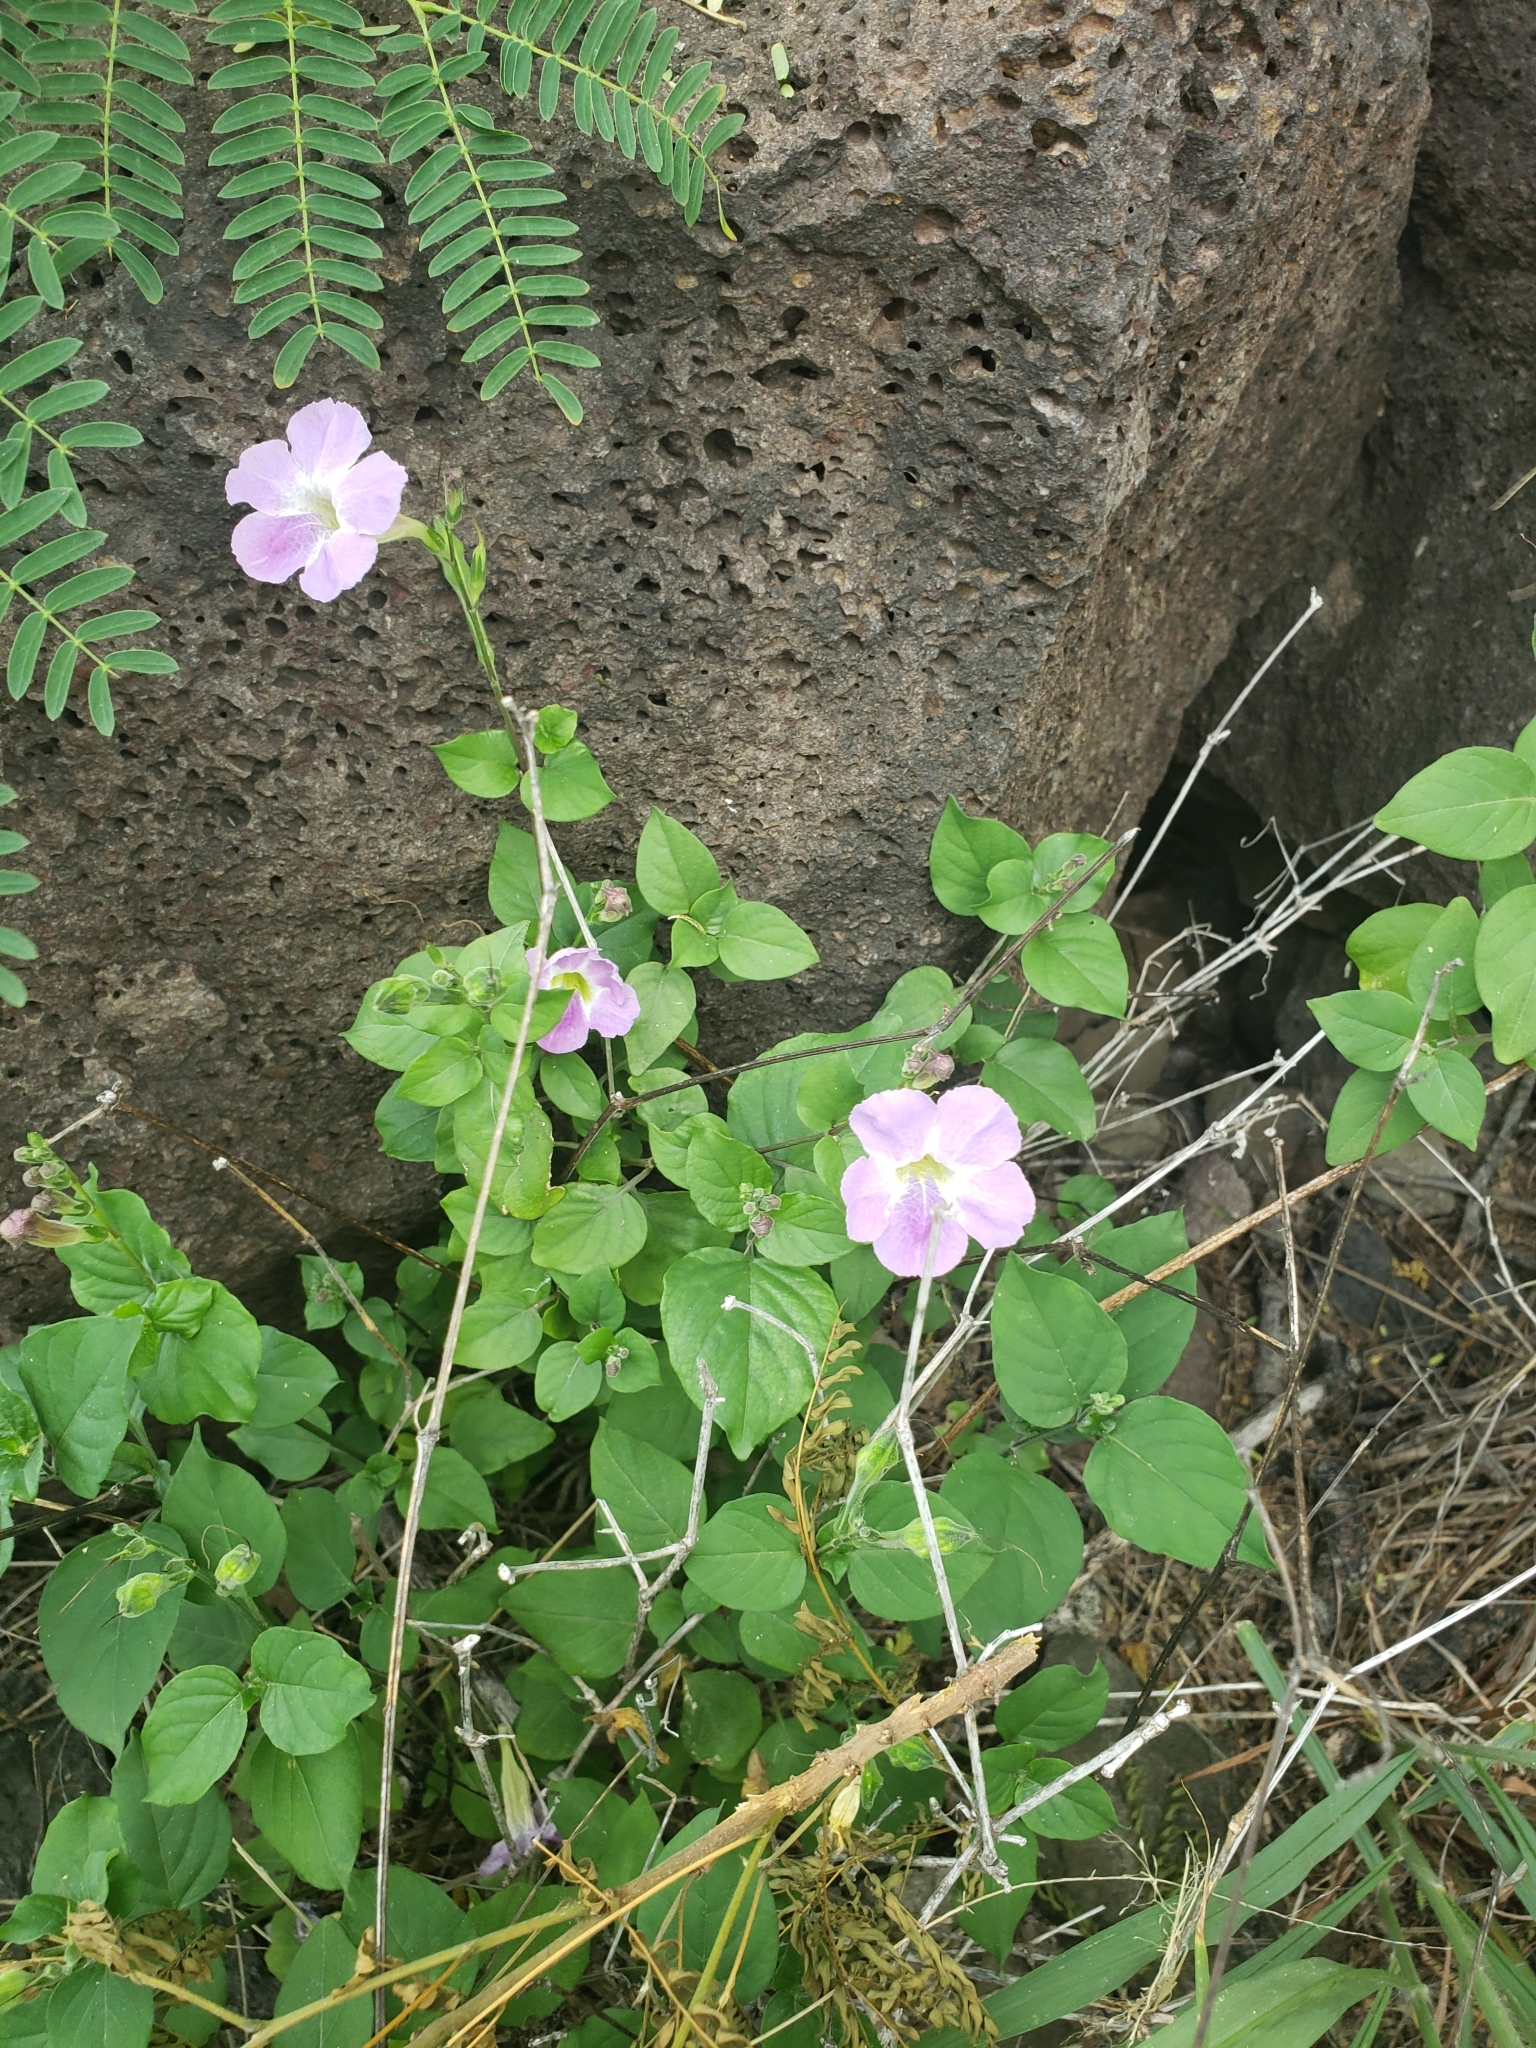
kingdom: Plantae
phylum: Tracheophyta
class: Magnoliopsida
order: Lamiales
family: Acanthaceae
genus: Asystasia
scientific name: Asystasia gangetica
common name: Chinese violet
